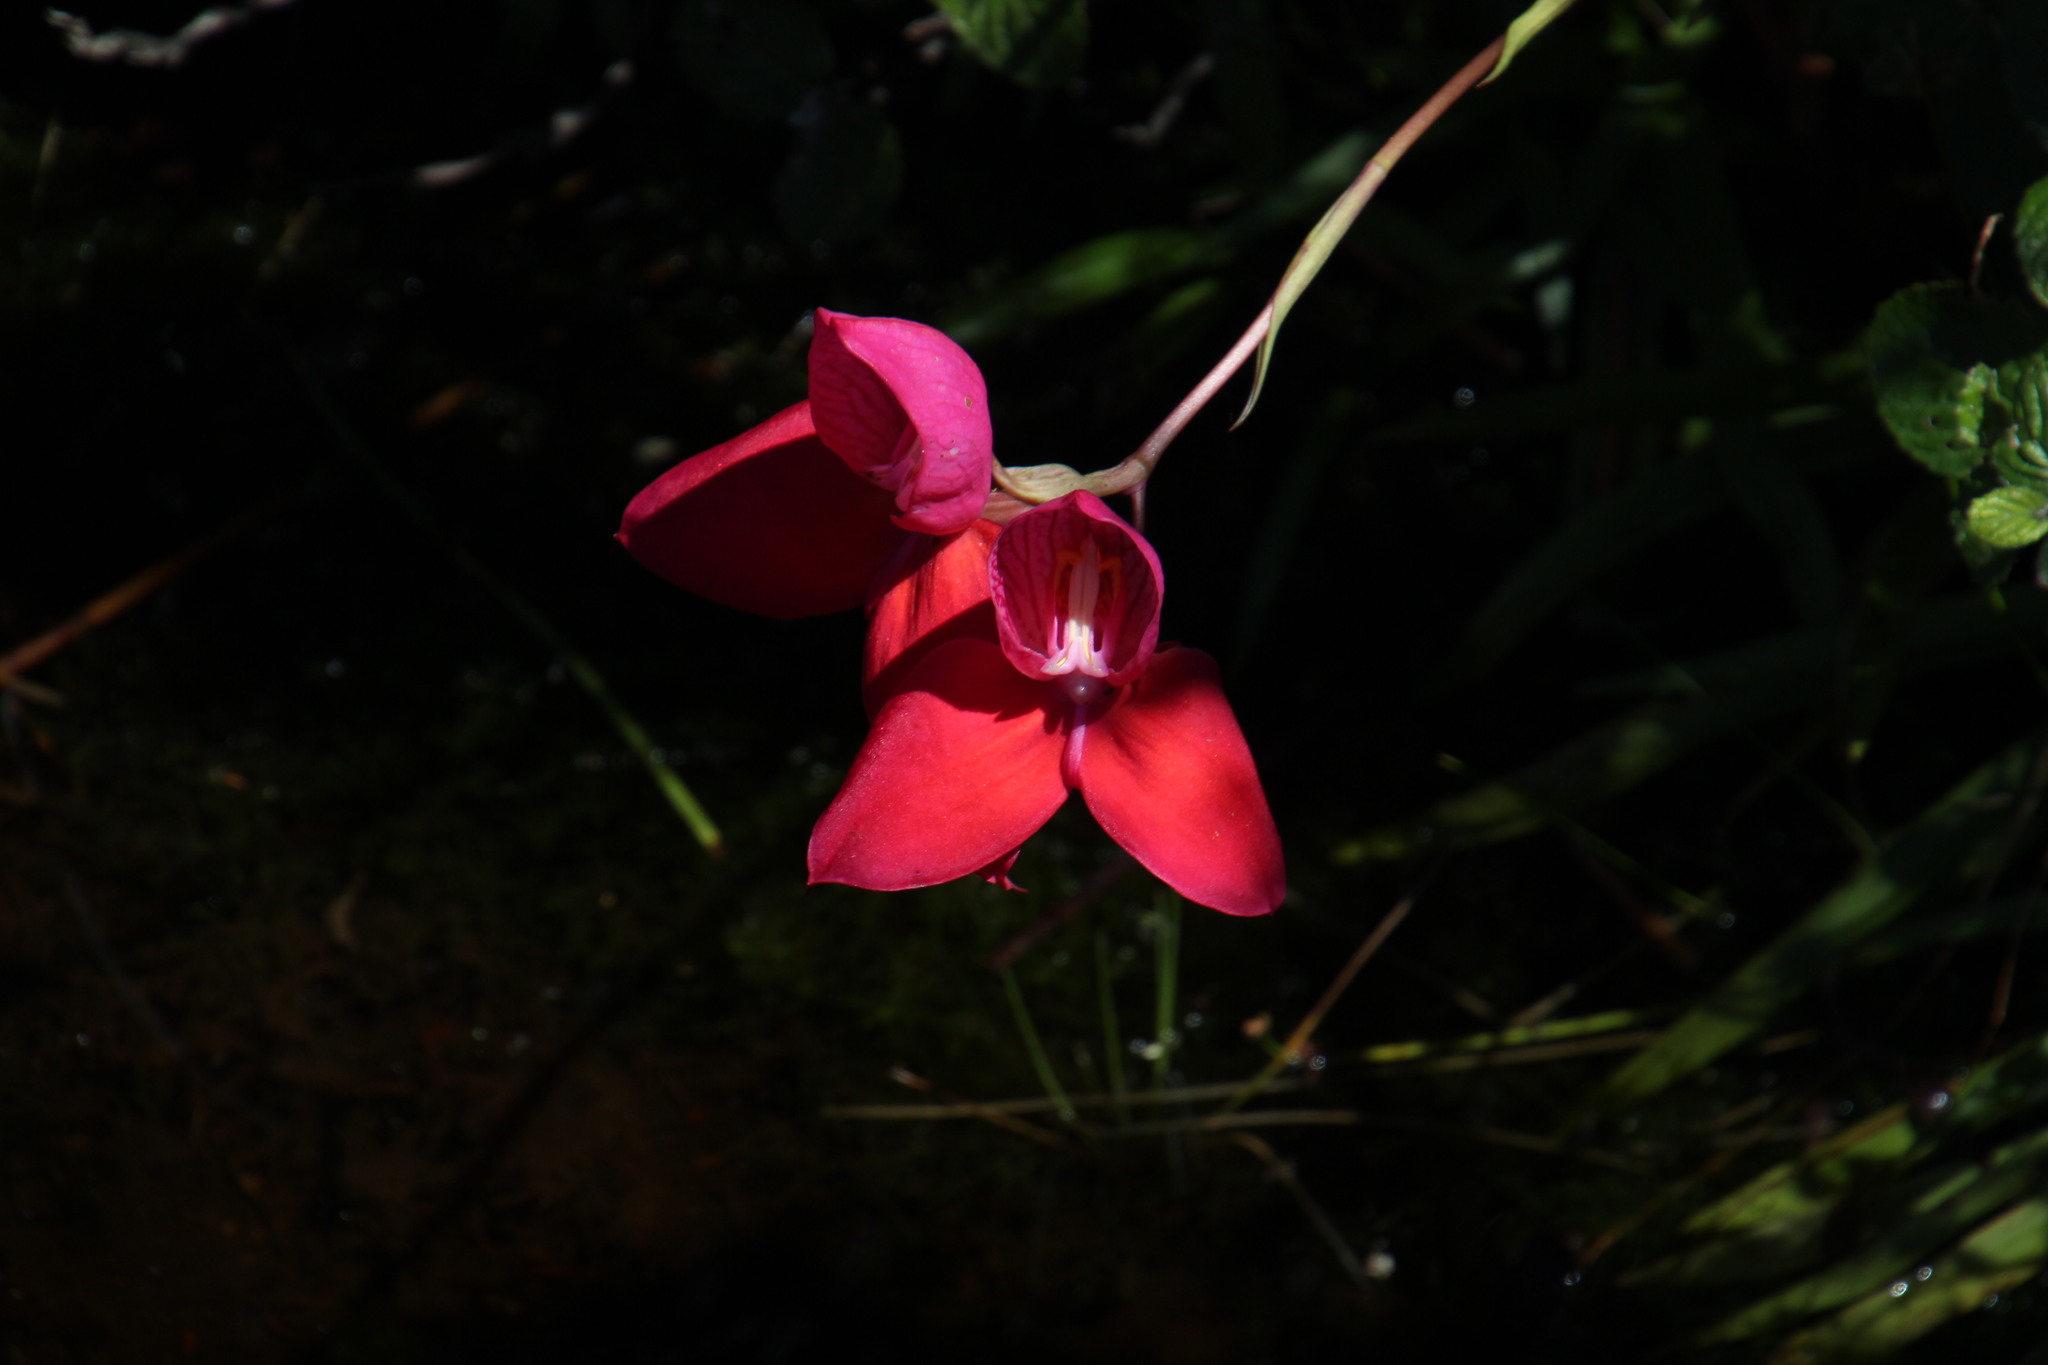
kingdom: Plantae
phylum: Tracheophyta
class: Liliopsida
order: Asparagales
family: Orchidaceae
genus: Disa
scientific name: Disa uniflora
